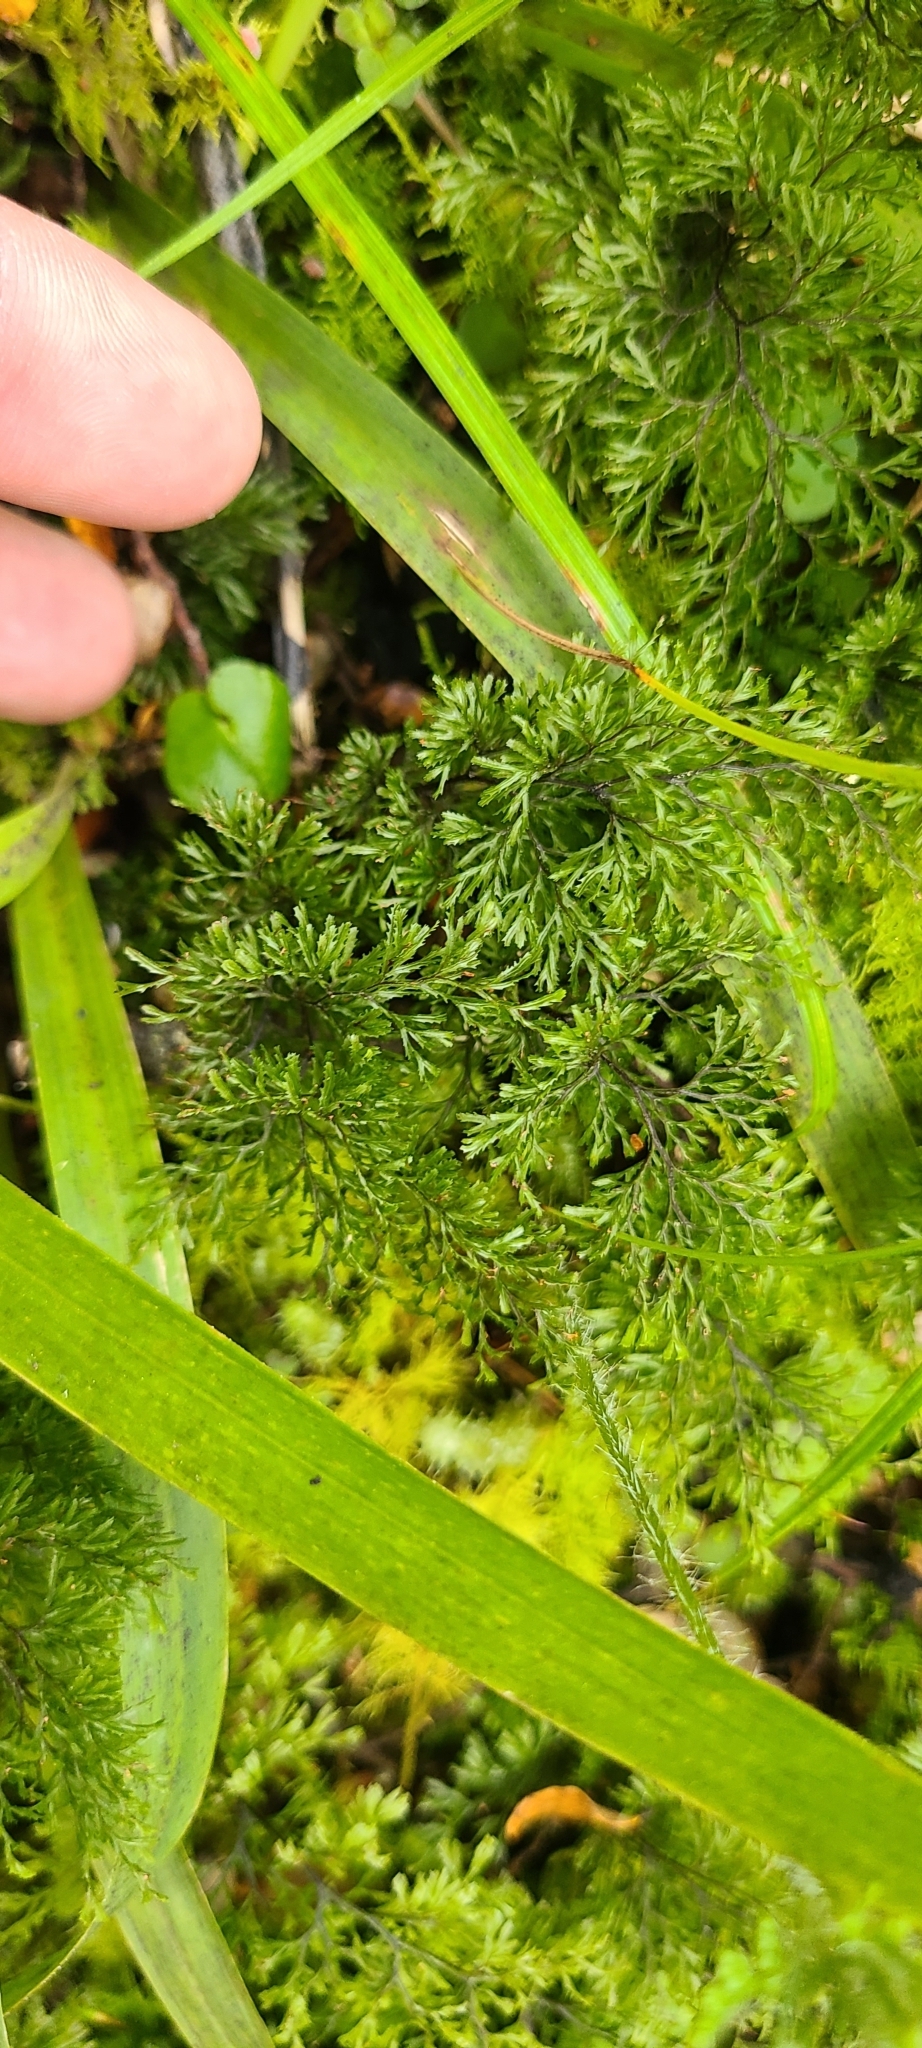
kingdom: Plantae
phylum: Tracheophyta
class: Polypodiopsida
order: Hymenophyllales
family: Hymenophyllaceae
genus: Hymenophyllum
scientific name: Hymenophyllum multifidum
